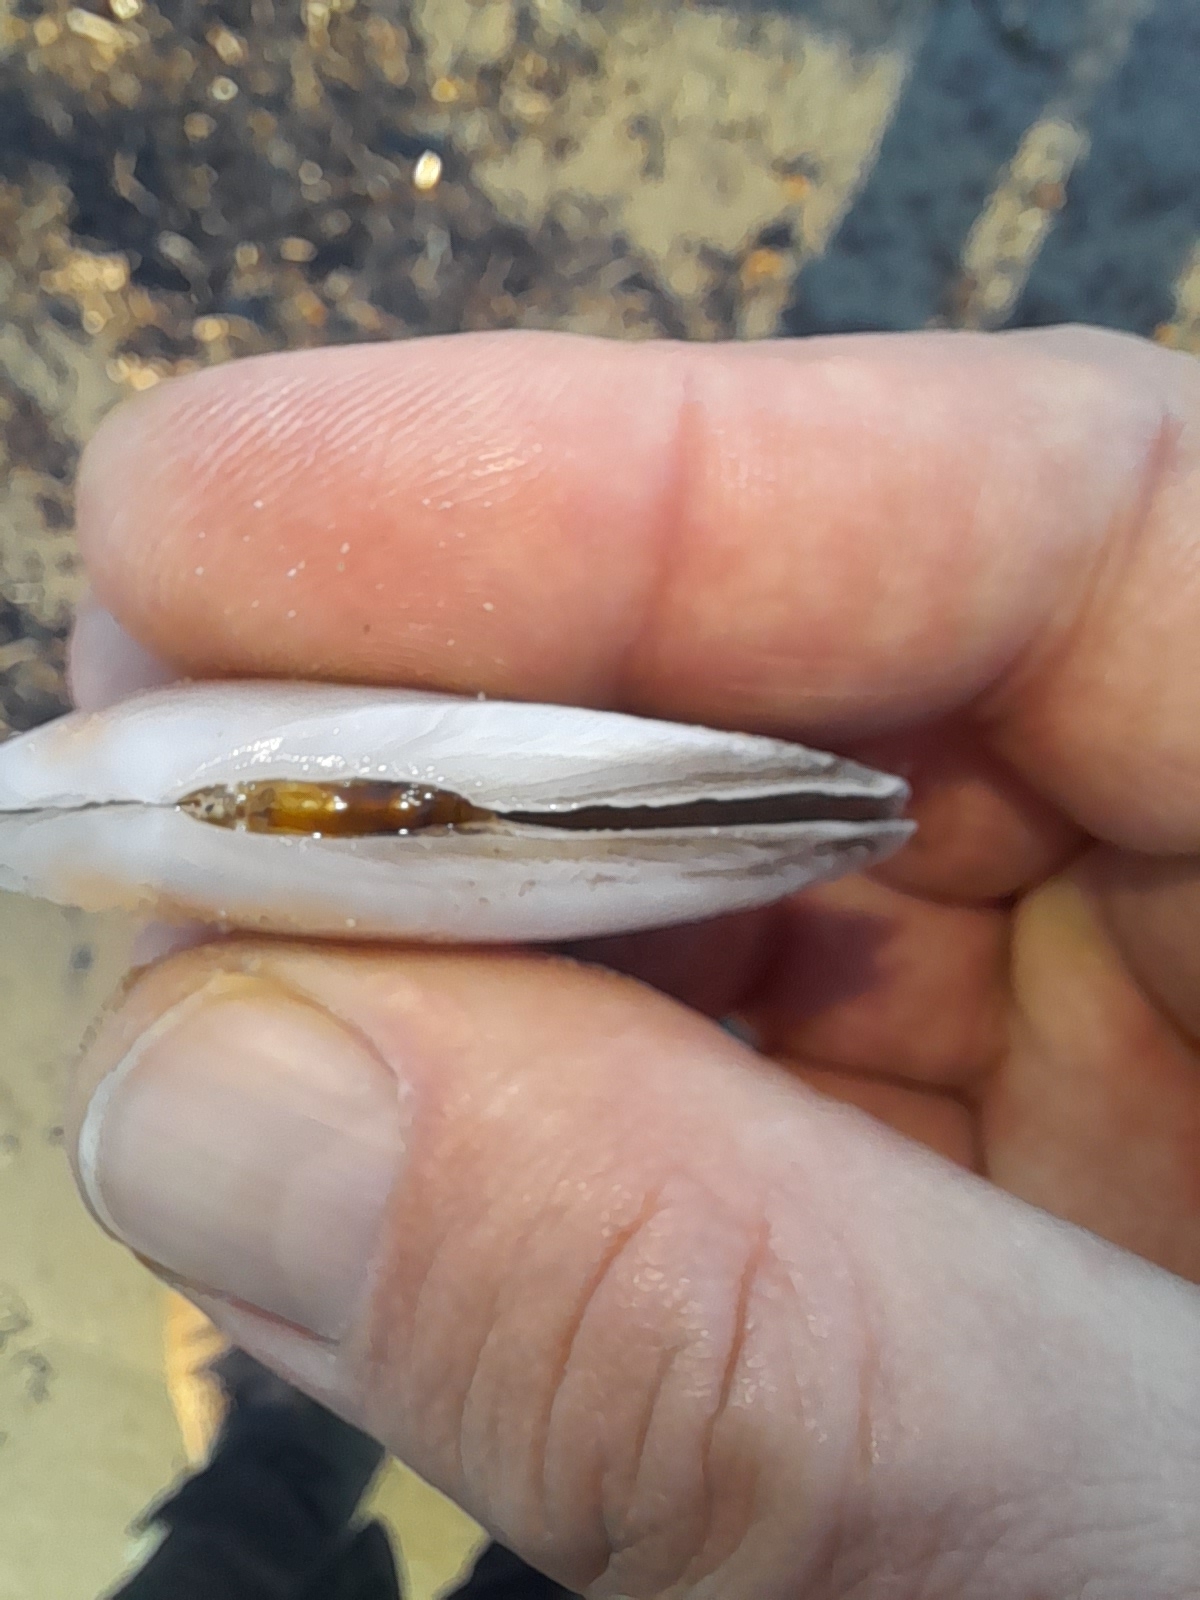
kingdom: Animalia
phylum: Mollusca
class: Bivalvia
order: Cardiida
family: Tellinidae
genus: Peronaea
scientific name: Peronaea planata
